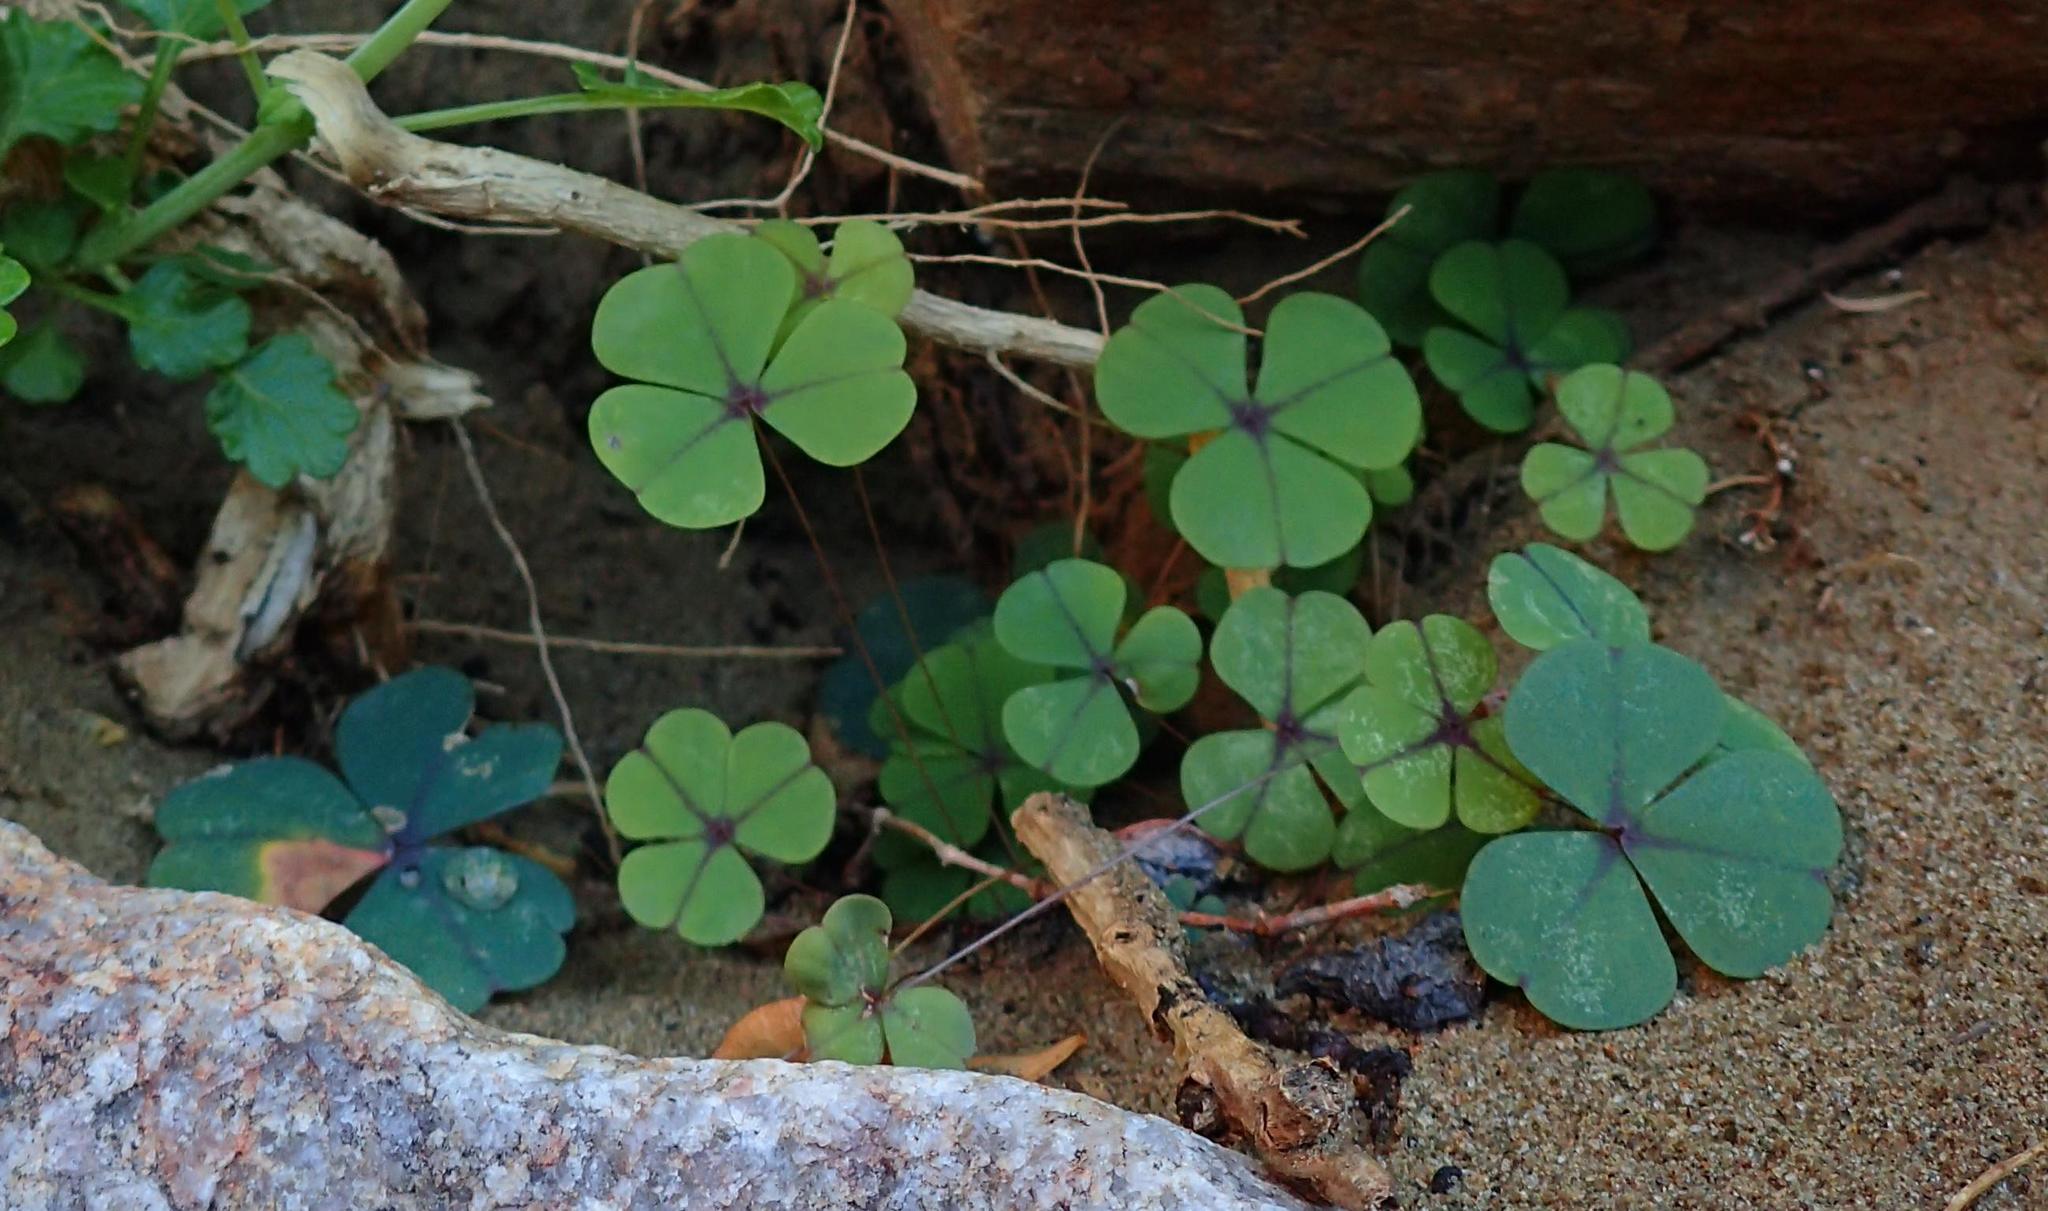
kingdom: Plantae
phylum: Tracheophyta
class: Magnoliopsida
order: Oxalidales
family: Oxalidaceae
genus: Oxalis
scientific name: Oxalis orbicularis
